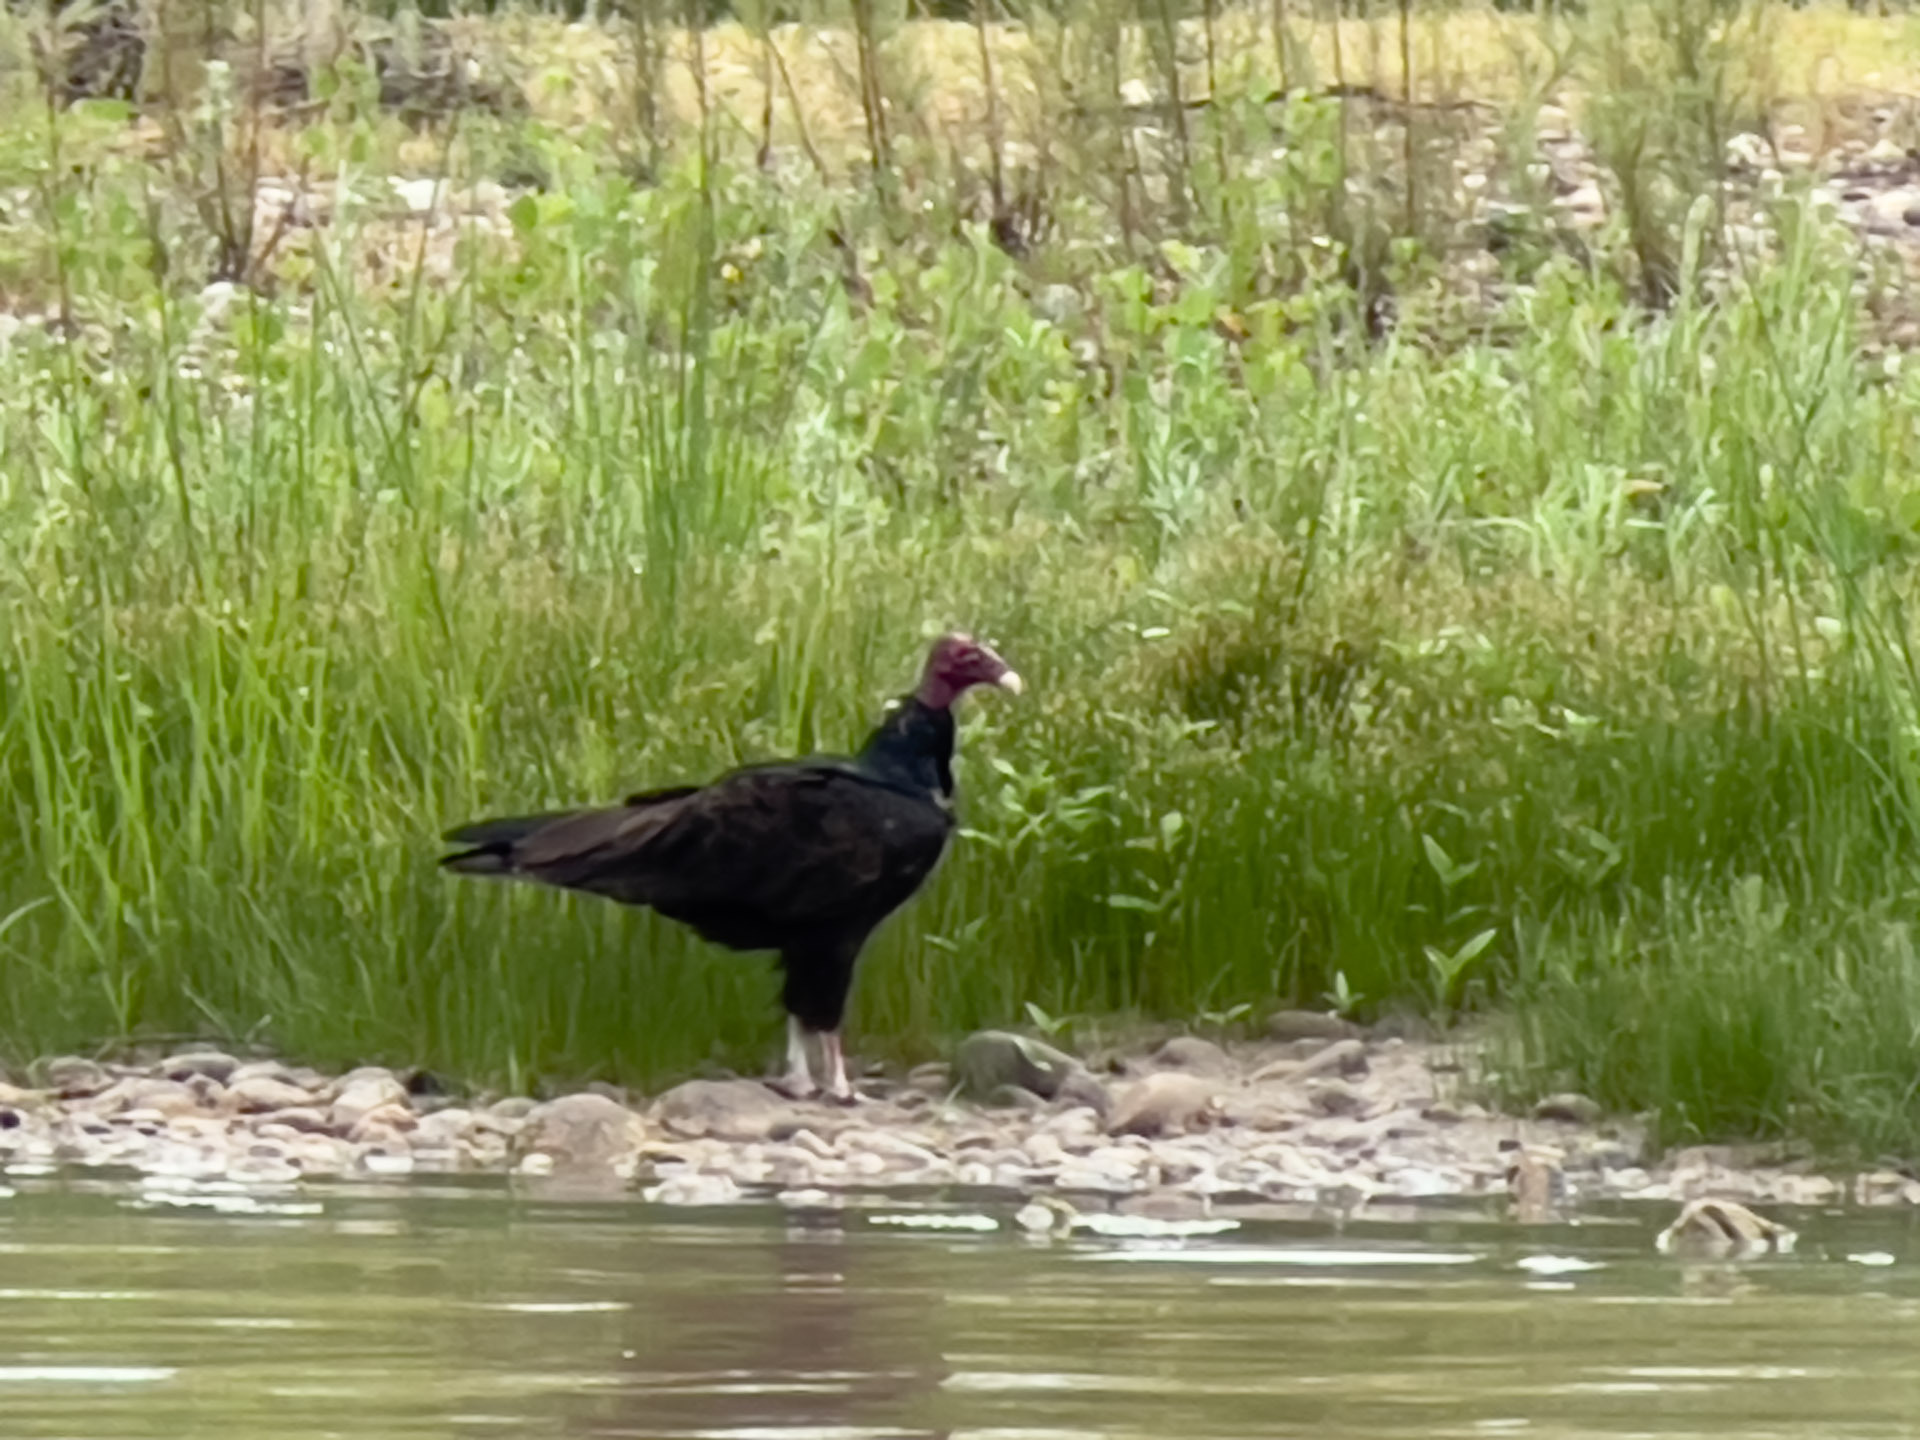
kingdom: Animalia
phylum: Chordata
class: Aves
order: Accipitriformes
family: Cathartidae
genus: Cathartes
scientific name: Cathartes aura
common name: Turkey vulture
